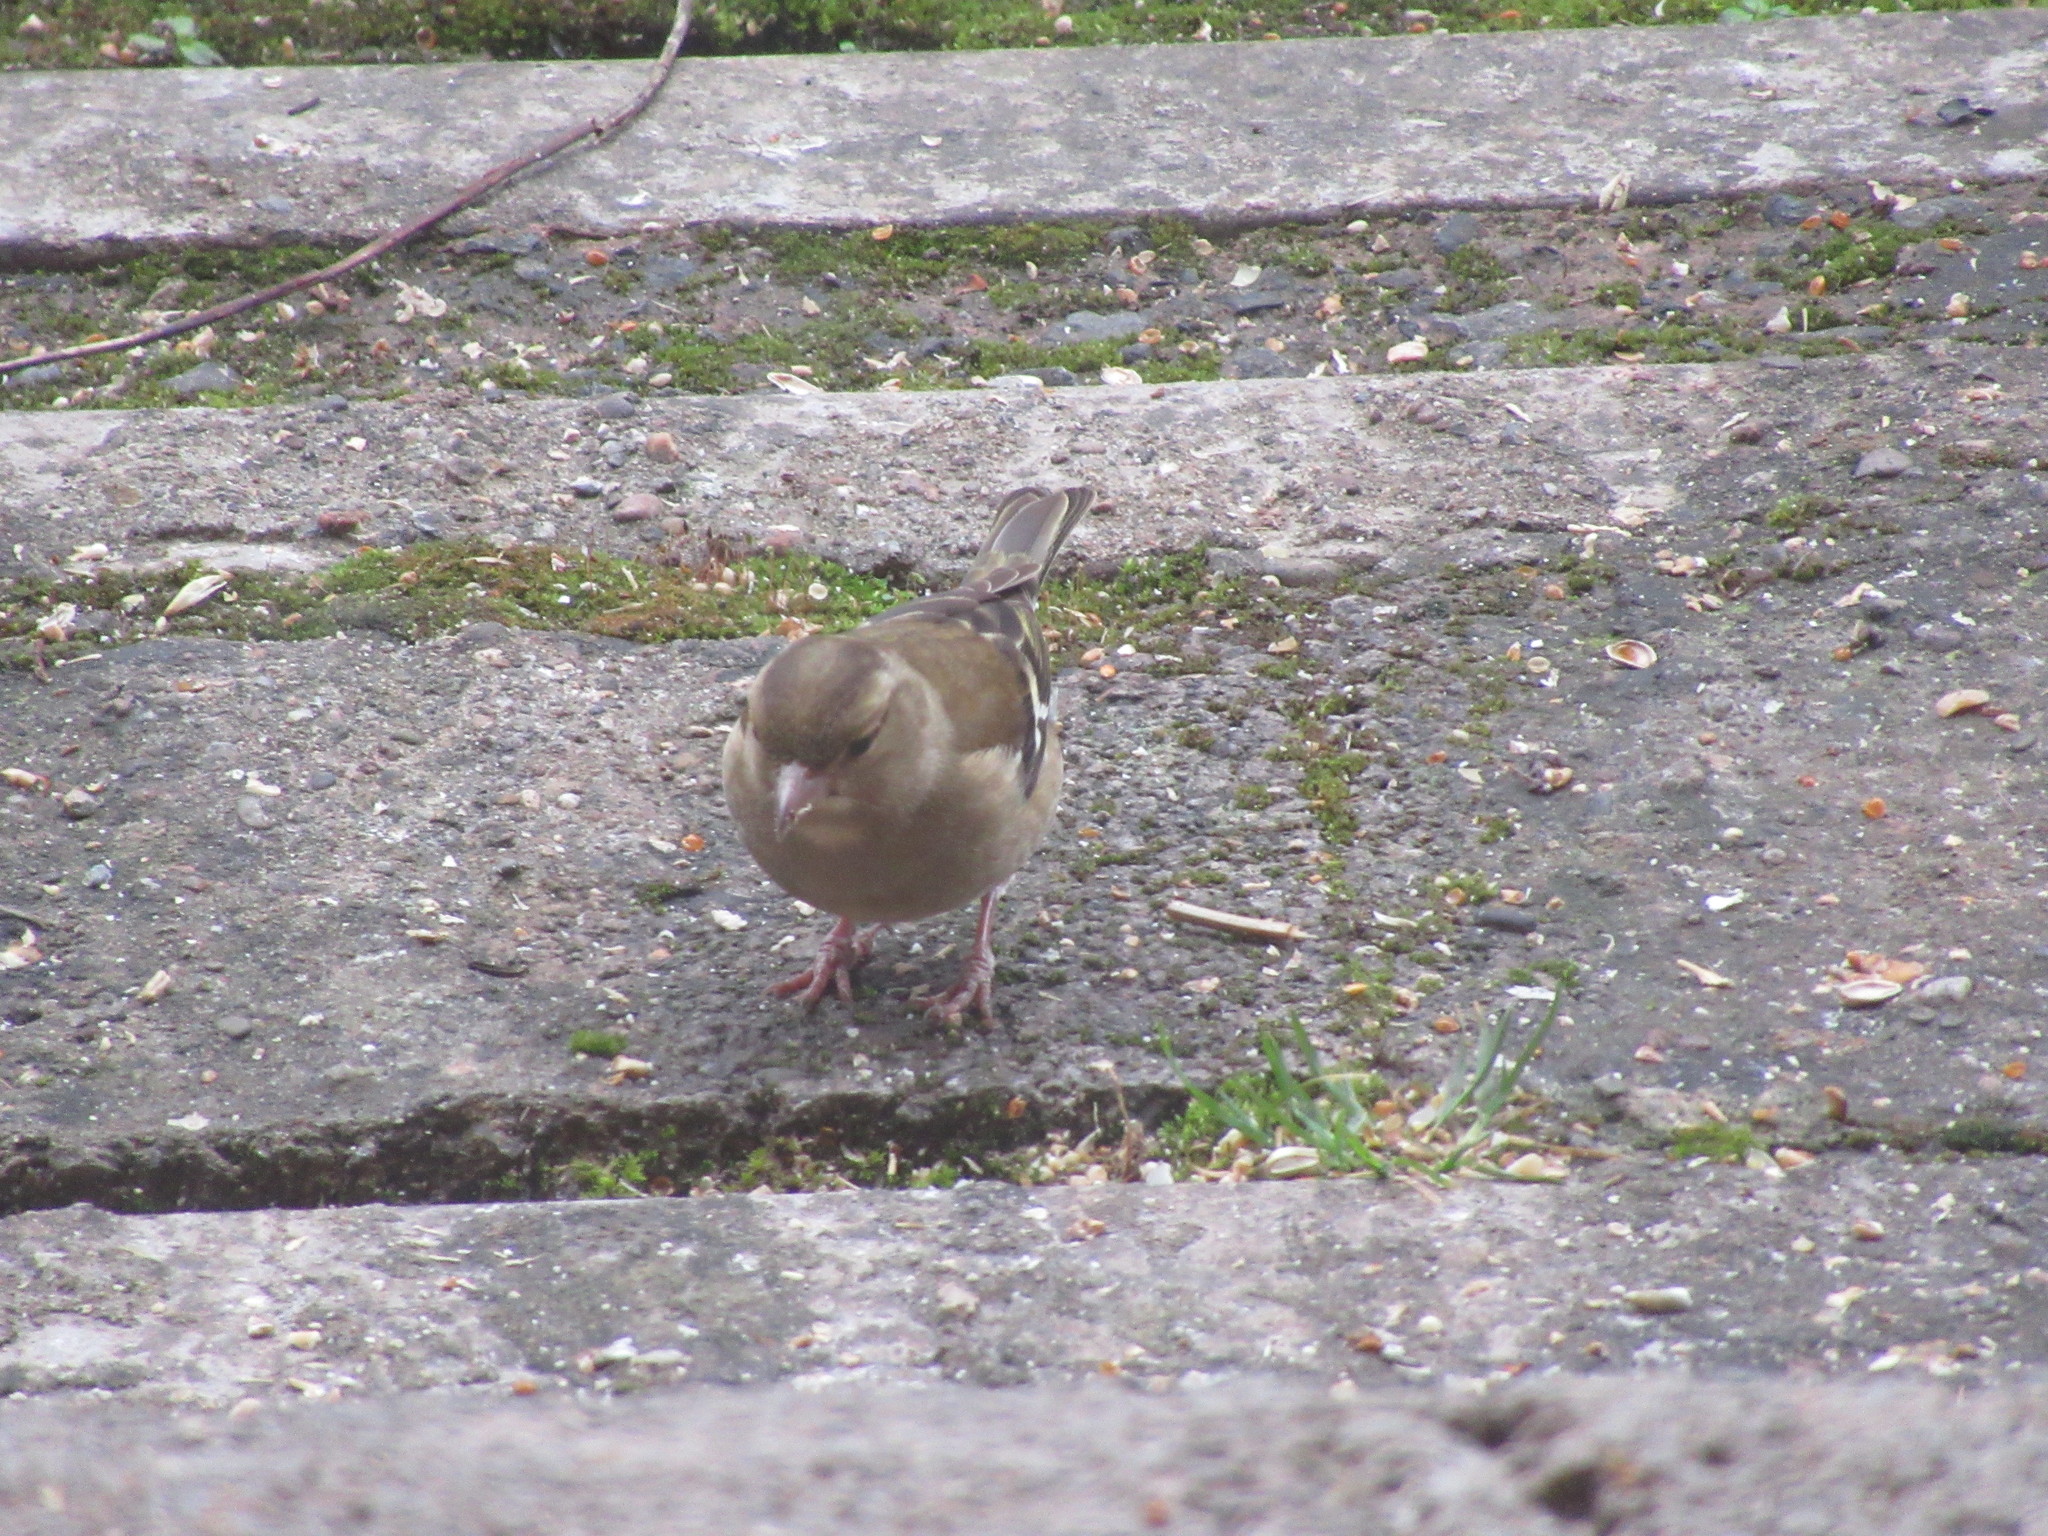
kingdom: Animalia
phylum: Chordata
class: Aves
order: Passeriformes
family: Fringillidae
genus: Fringilla
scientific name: Fringilla coelebs
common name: Common chaffinch
